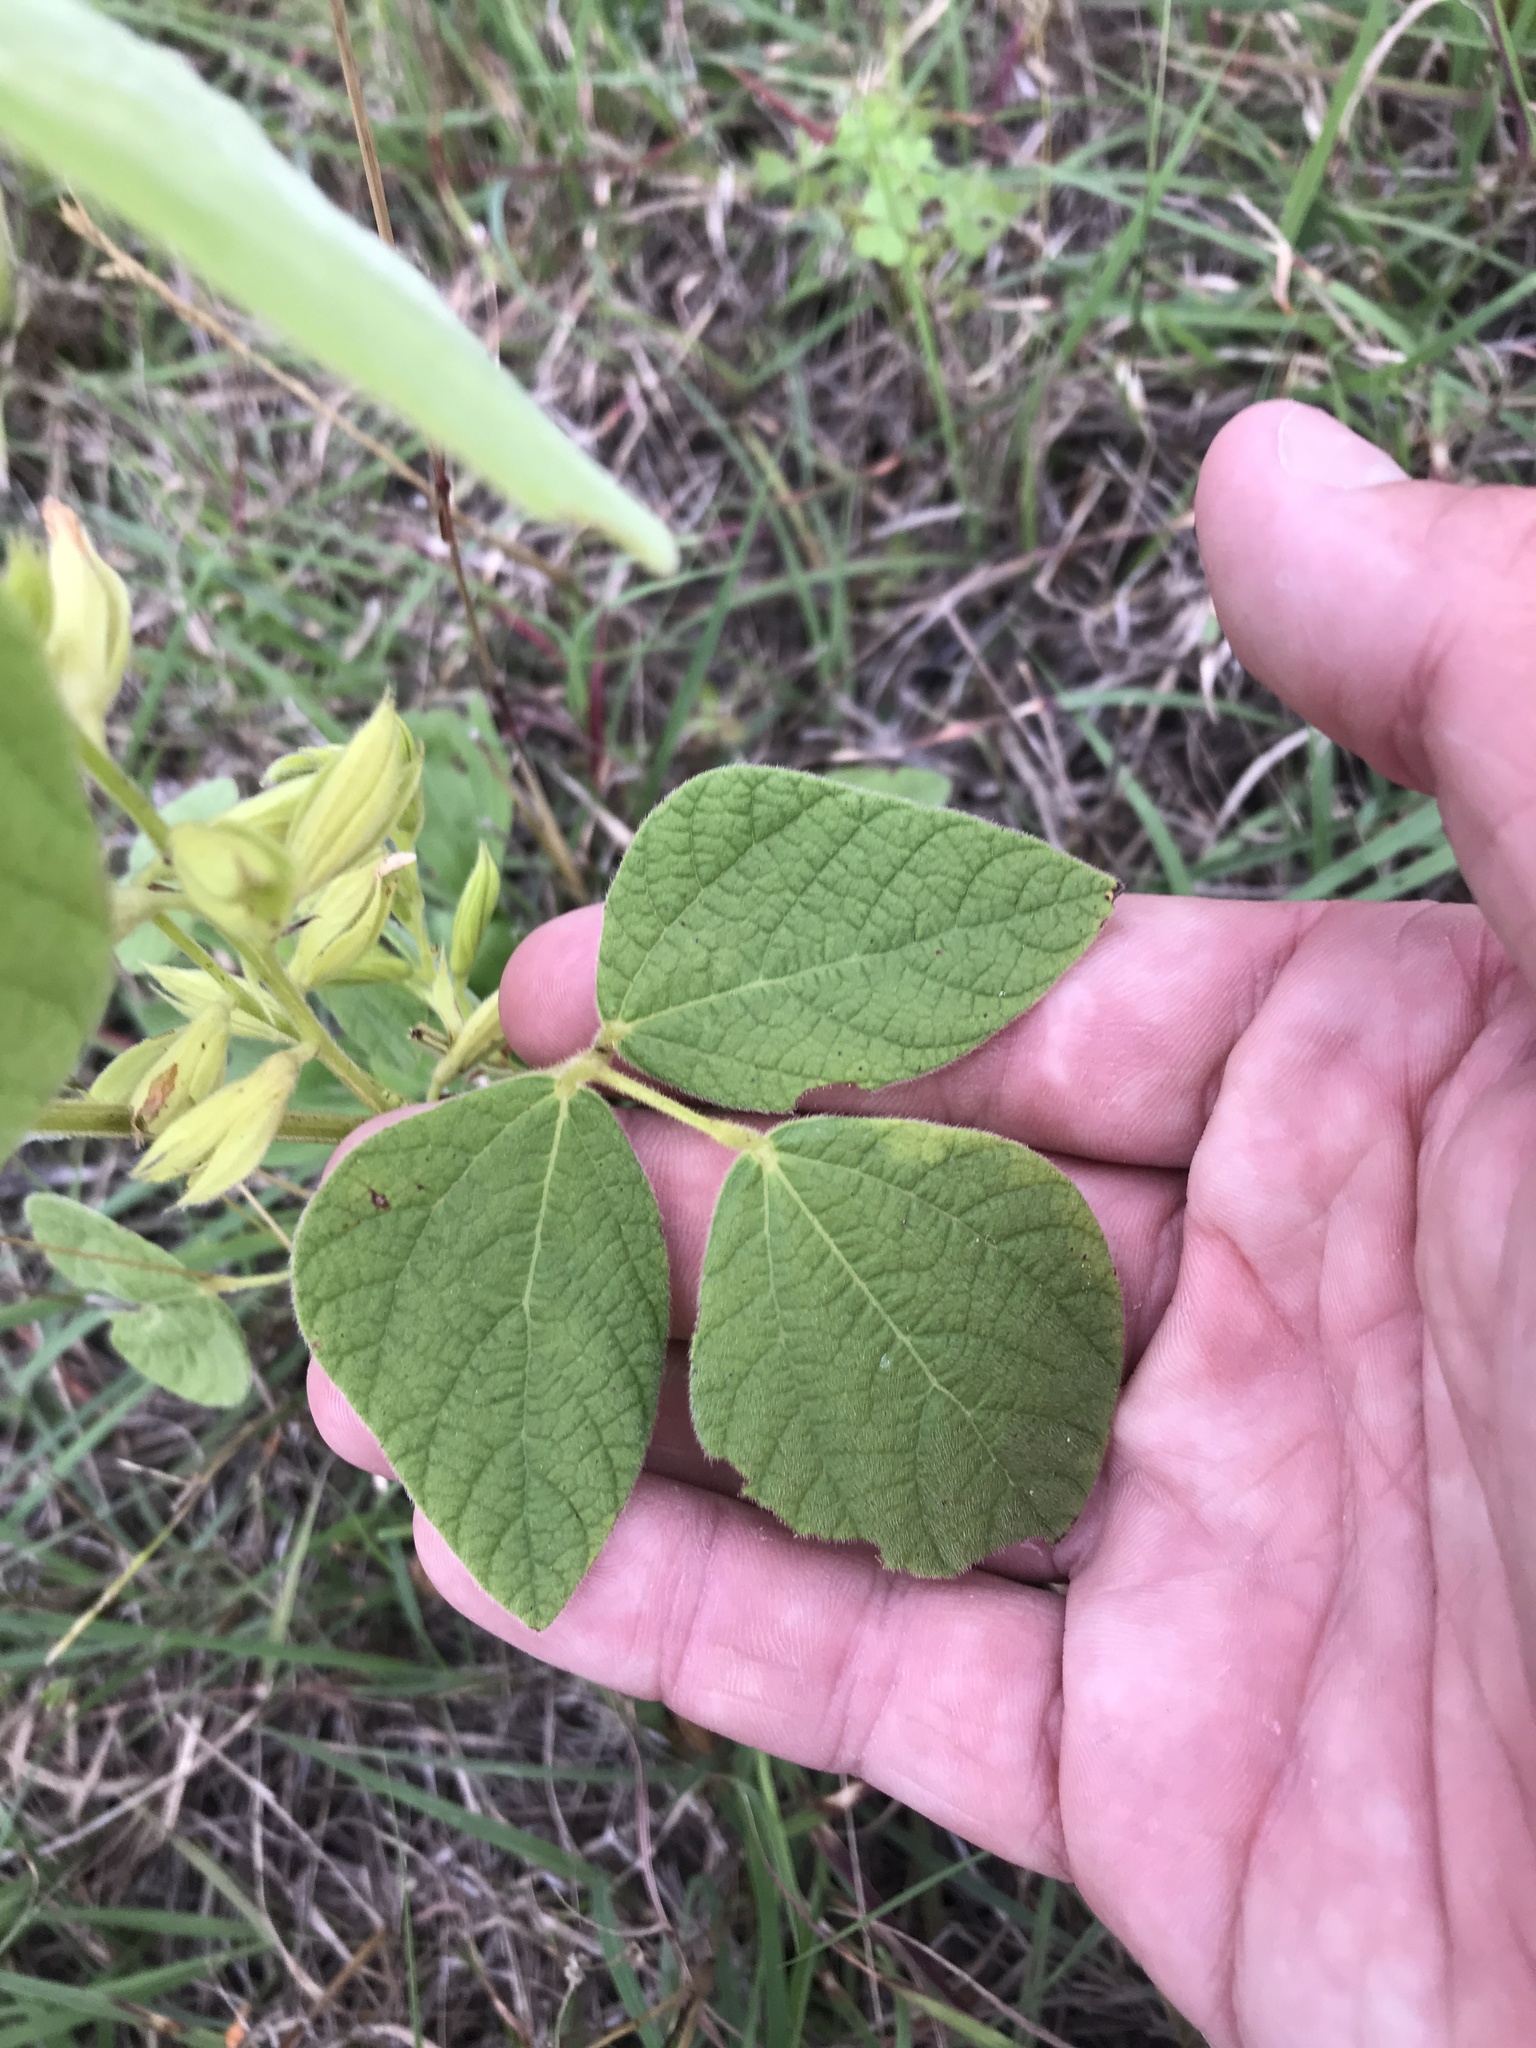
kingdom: Plantae
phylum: Tracheophyta
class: Magnoliopsida
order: Fabales
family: Fabaceae
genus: Rhynchosia
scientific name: Rhynchosia minima
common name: Least snoutbean
